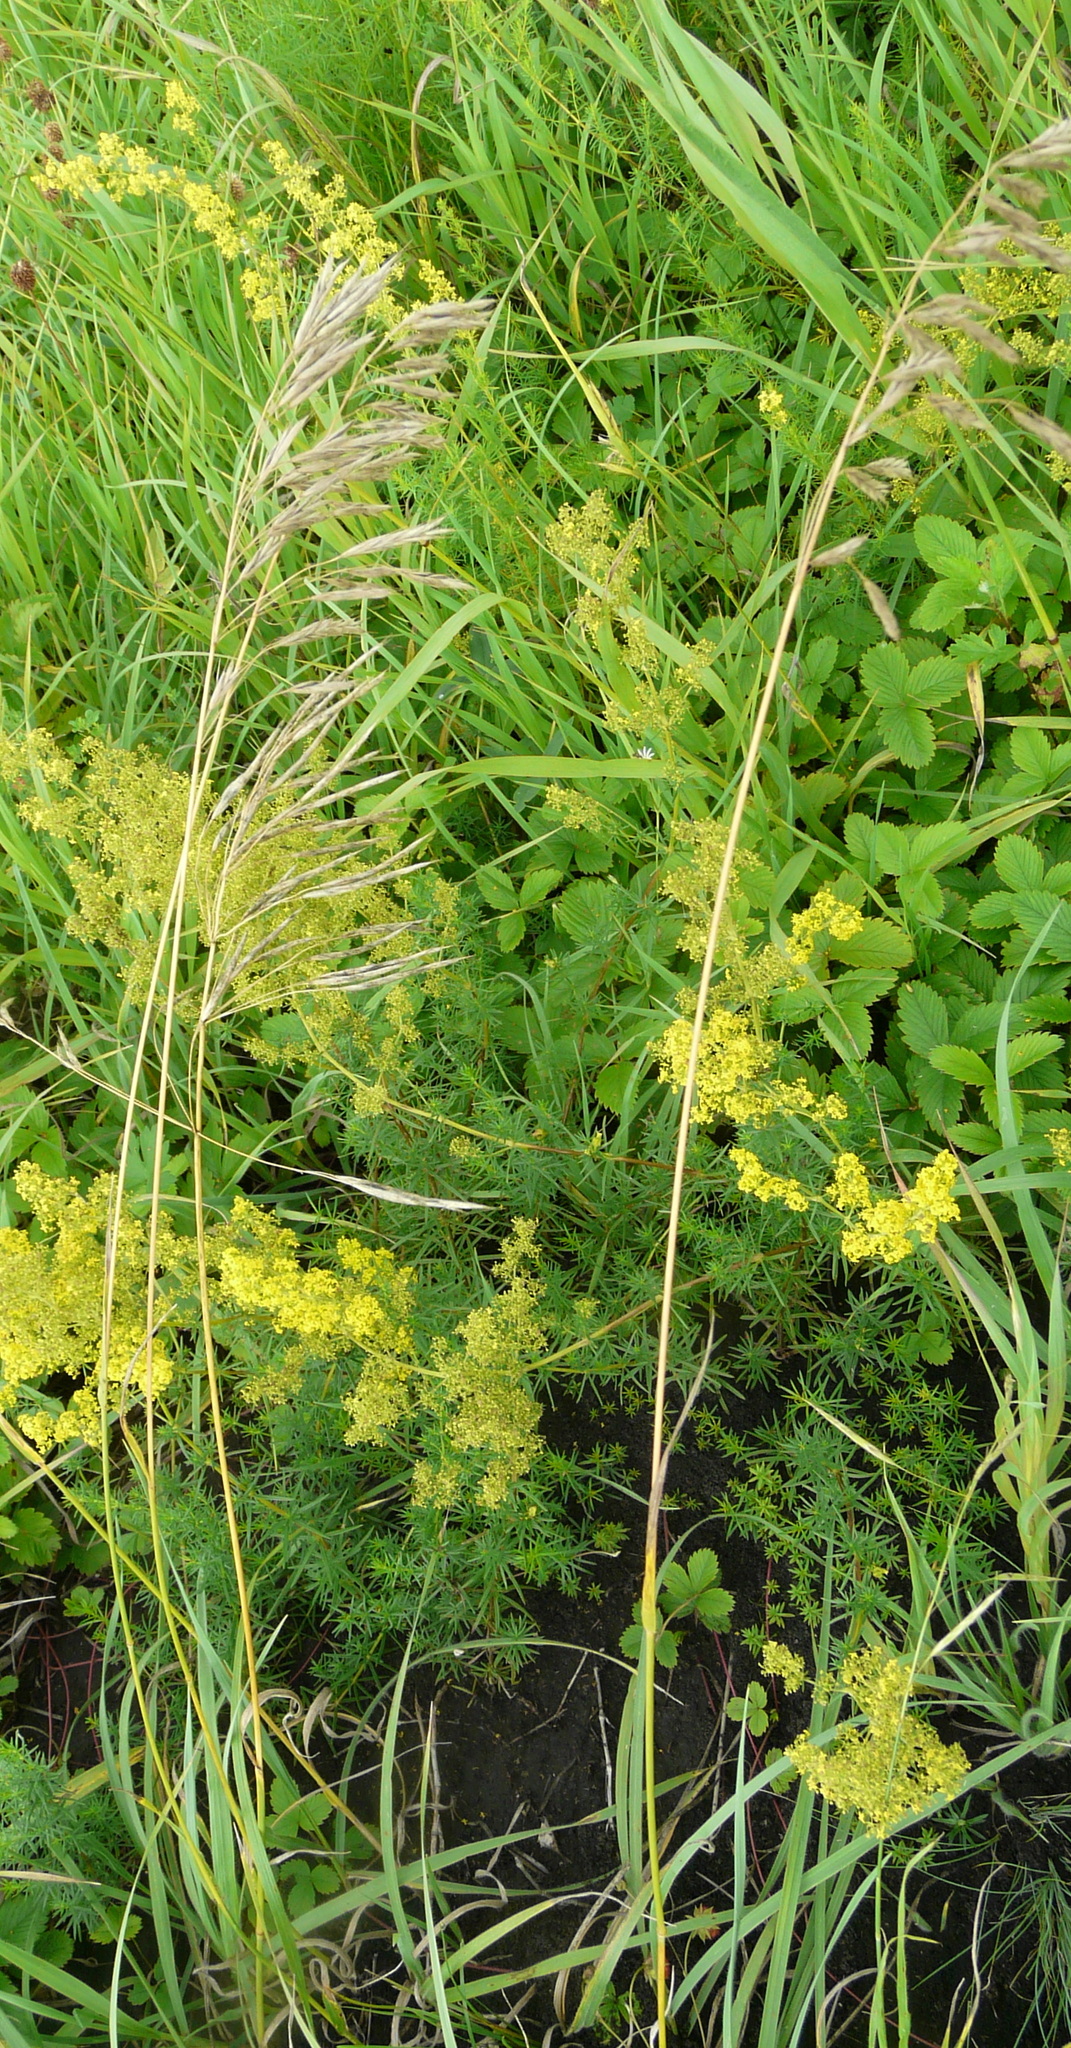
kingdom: Plantae
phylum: Tracheophyta
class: Liliopsida
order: Poales
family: Poaceae
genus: Bromus
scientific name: Bromus inermis
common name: Smooth brome
